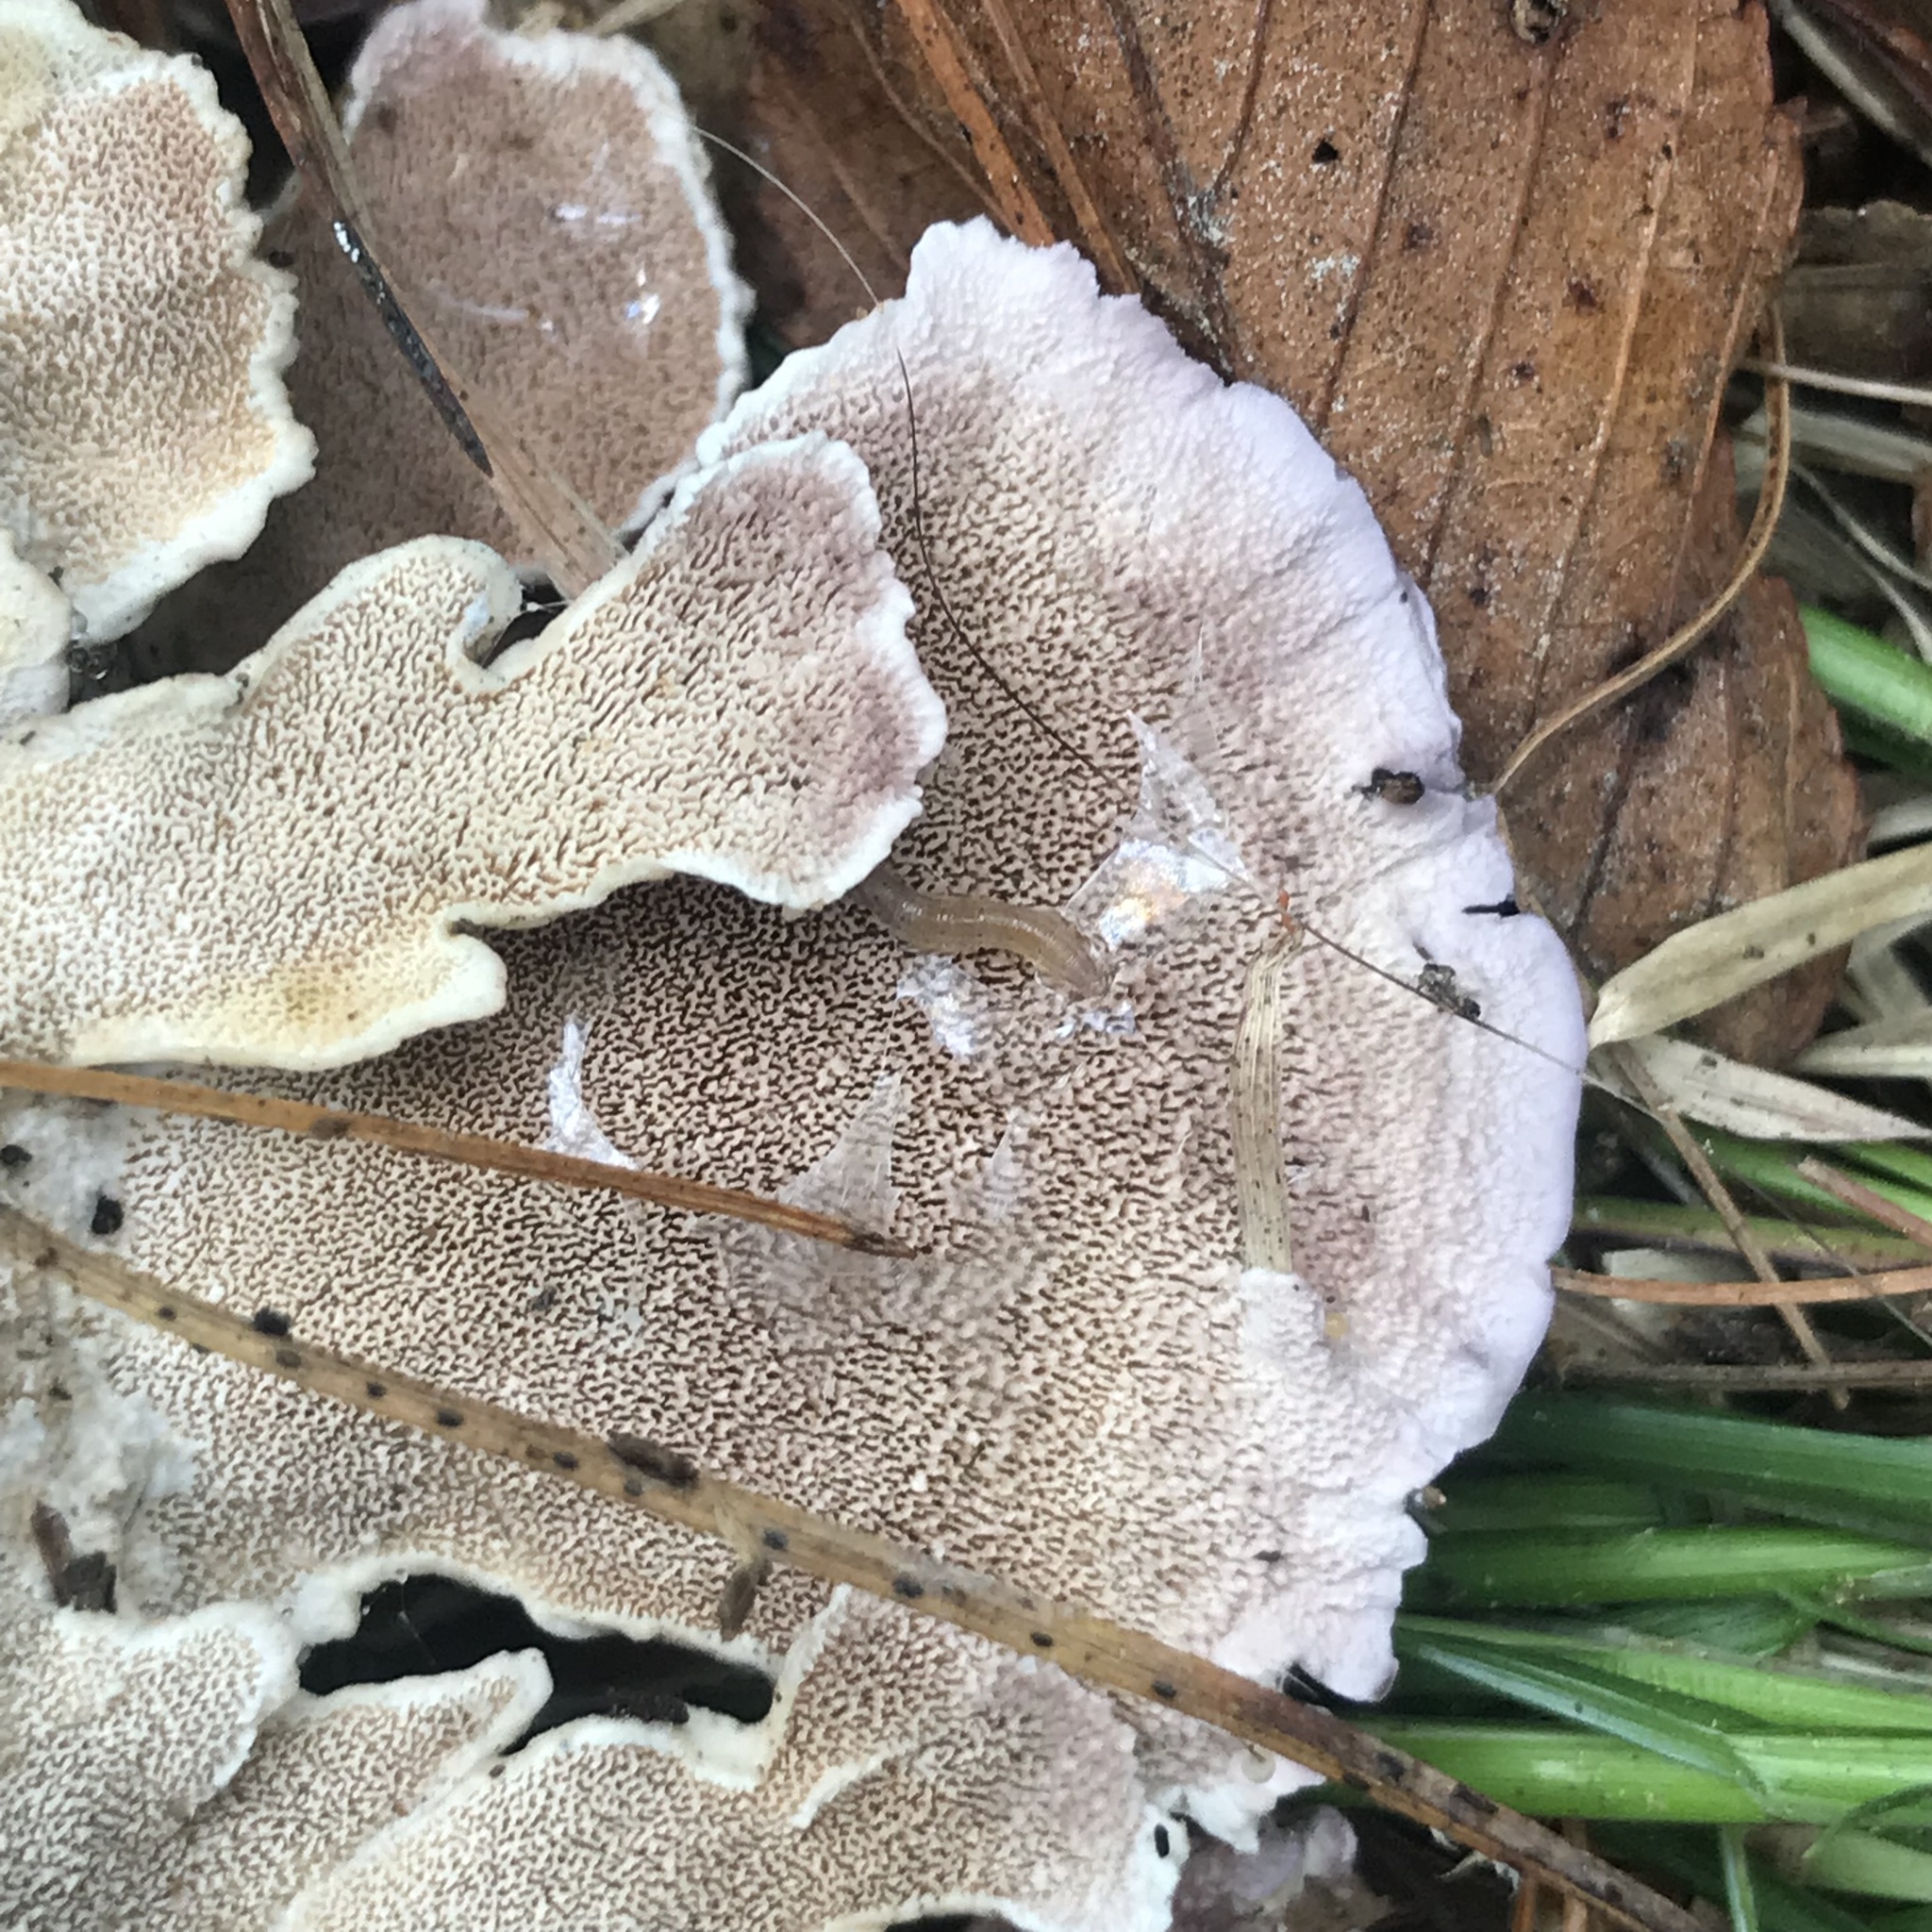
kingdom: Fungi
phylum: Basidiomycota
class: Agaricomycetes
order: Hymenochaetales
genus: Trichaptum
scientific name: Trichaptum biforme
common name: Violet-toothed polypore
